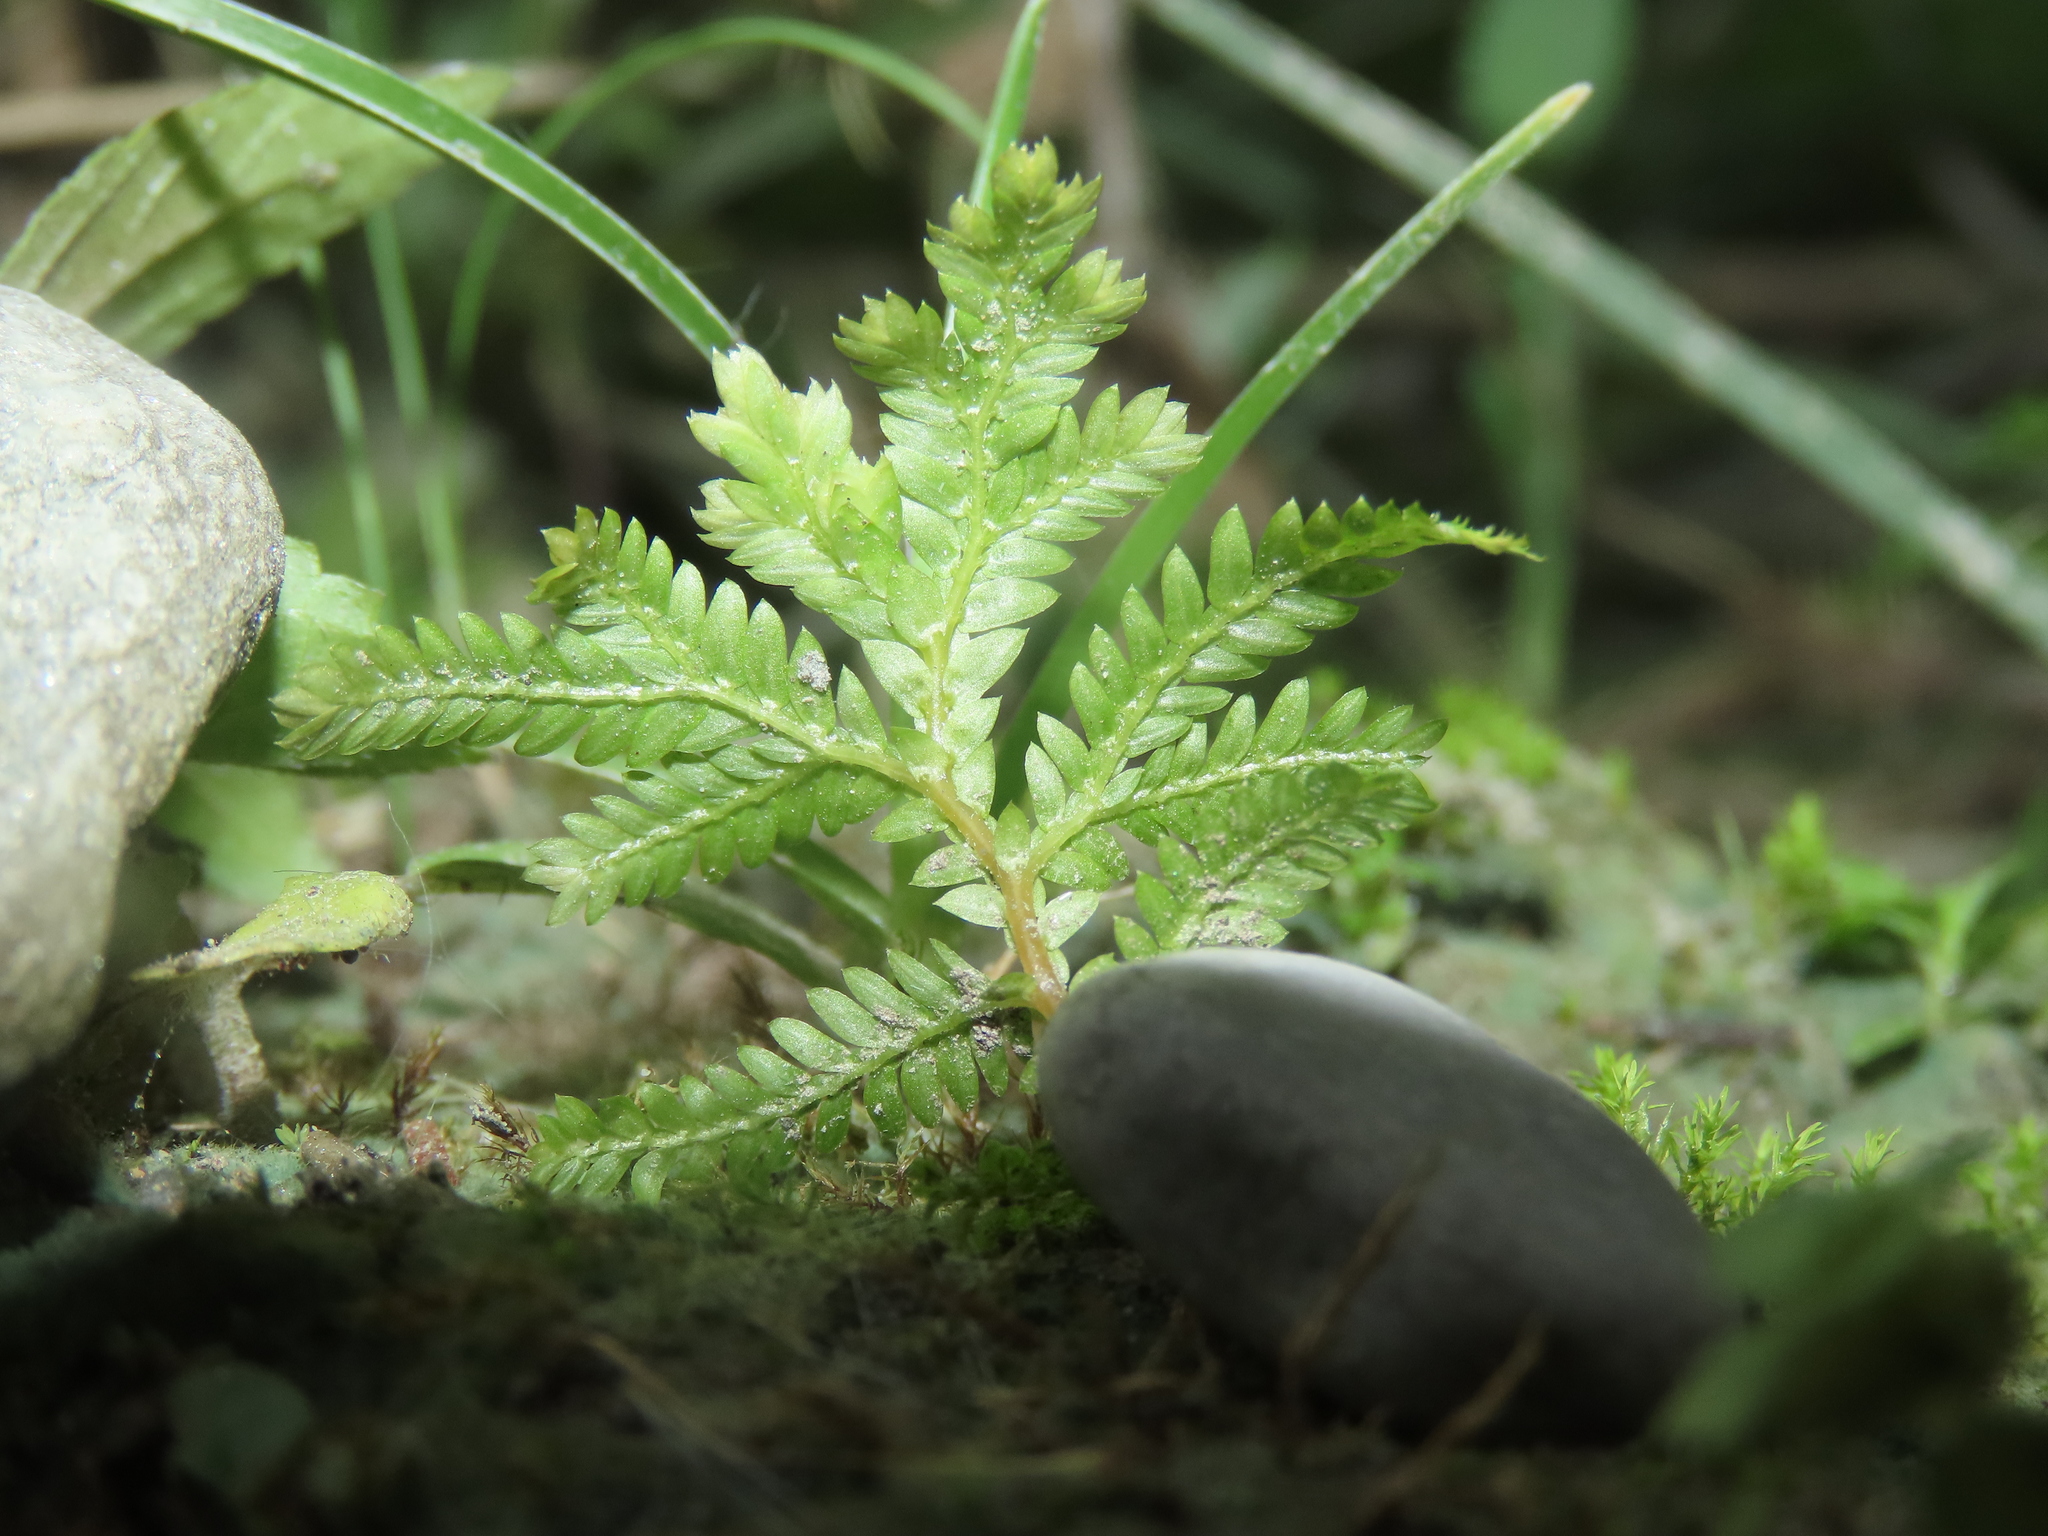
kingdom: Plantae
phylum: Tracheophyta
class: Lycopodiopsida
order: Selaginellales
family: Selaginellaceae
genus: Selaginella
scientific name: Selaginella delicatula
